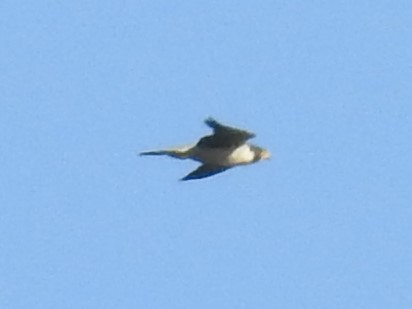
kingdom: Animalia
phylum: Chordata
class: Aves
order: Falconiformes
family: Falconidae
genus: Falco
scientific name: Falco peregrinus
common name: Peregrine falcon
